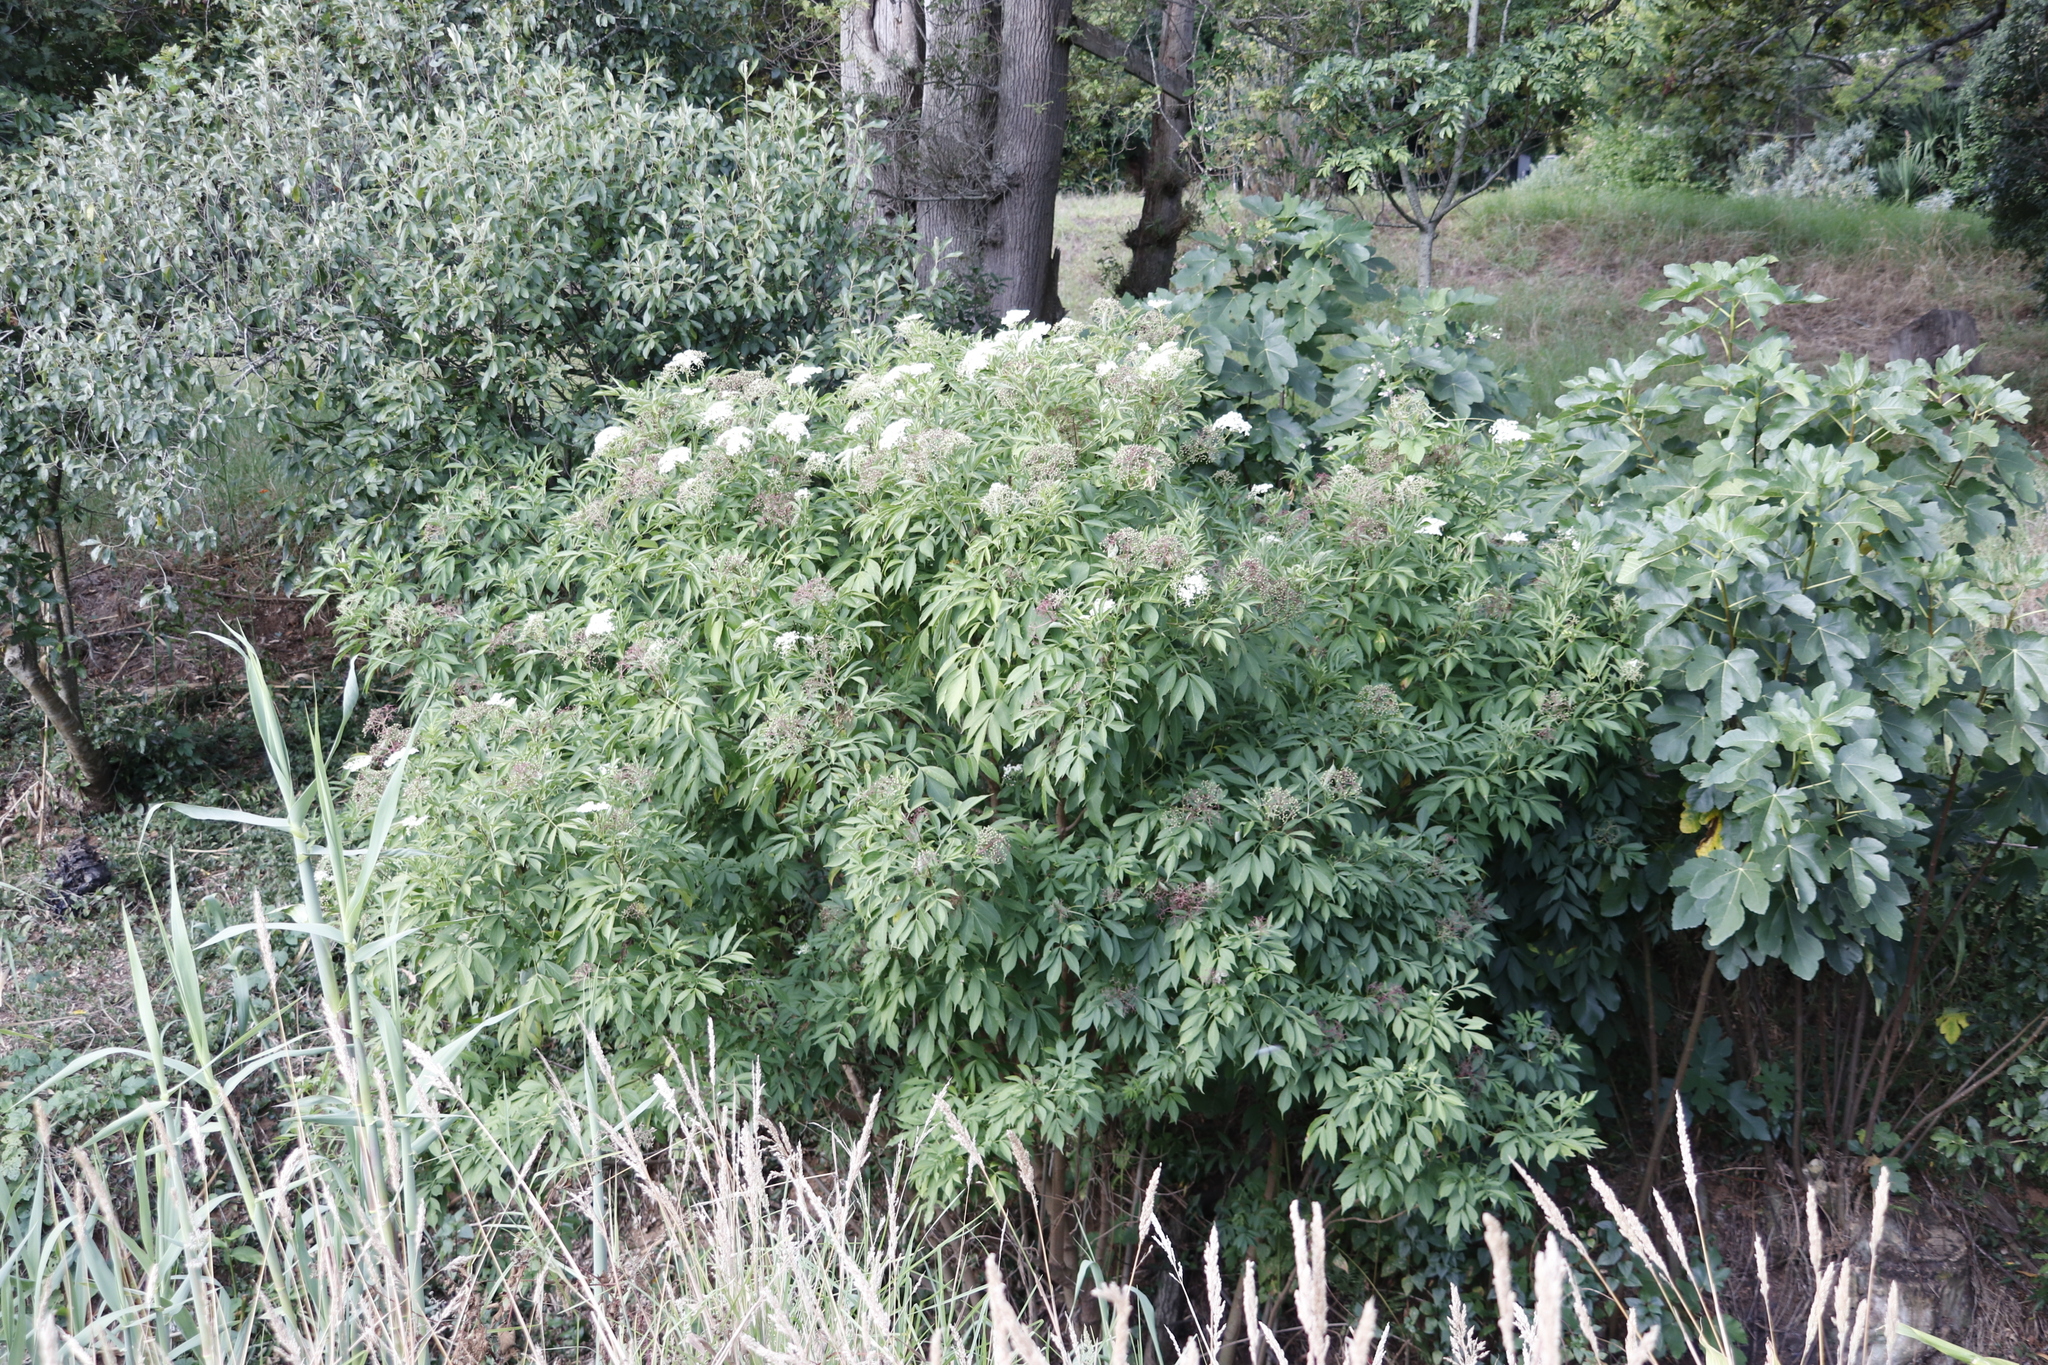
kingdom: Plantae
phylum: Tracheophyta
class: Magnoliopsida
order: Dipsacales
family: Viburnaceae
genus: Sambucus
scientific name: Sambucus canadensis
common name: American elder
